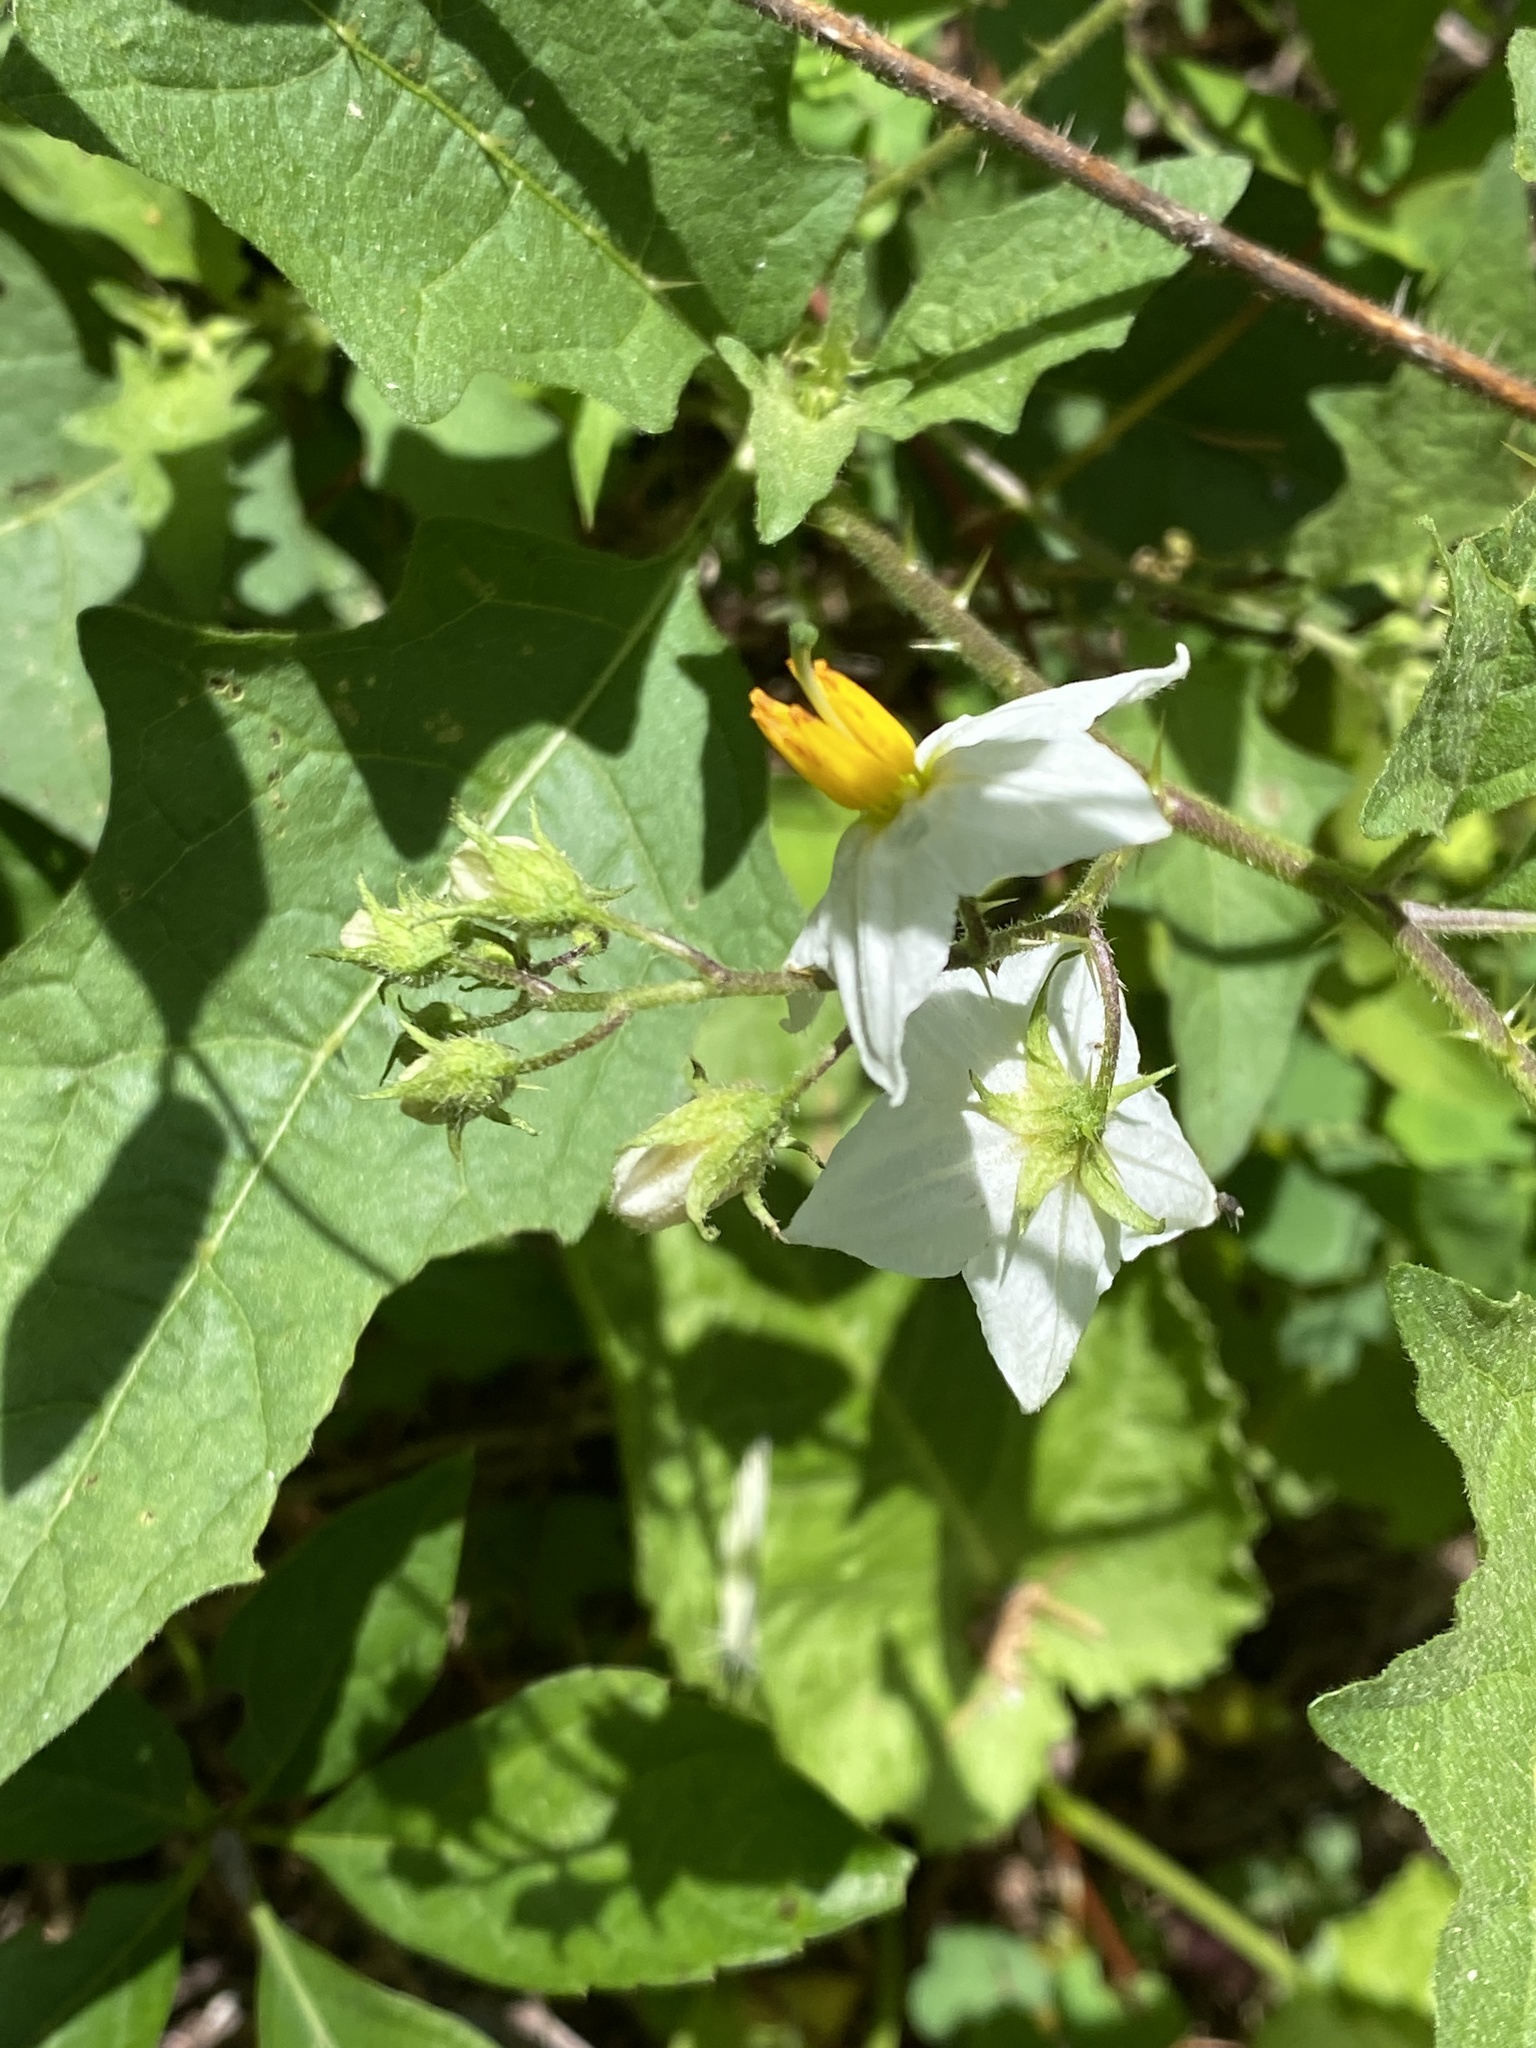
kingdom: Plantae
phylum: Tracheophyta
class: Magnoliopsida
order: Solanales
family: Solanaceae
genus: Solanum
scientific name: Solanum carolinense
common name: Horse-nettle
